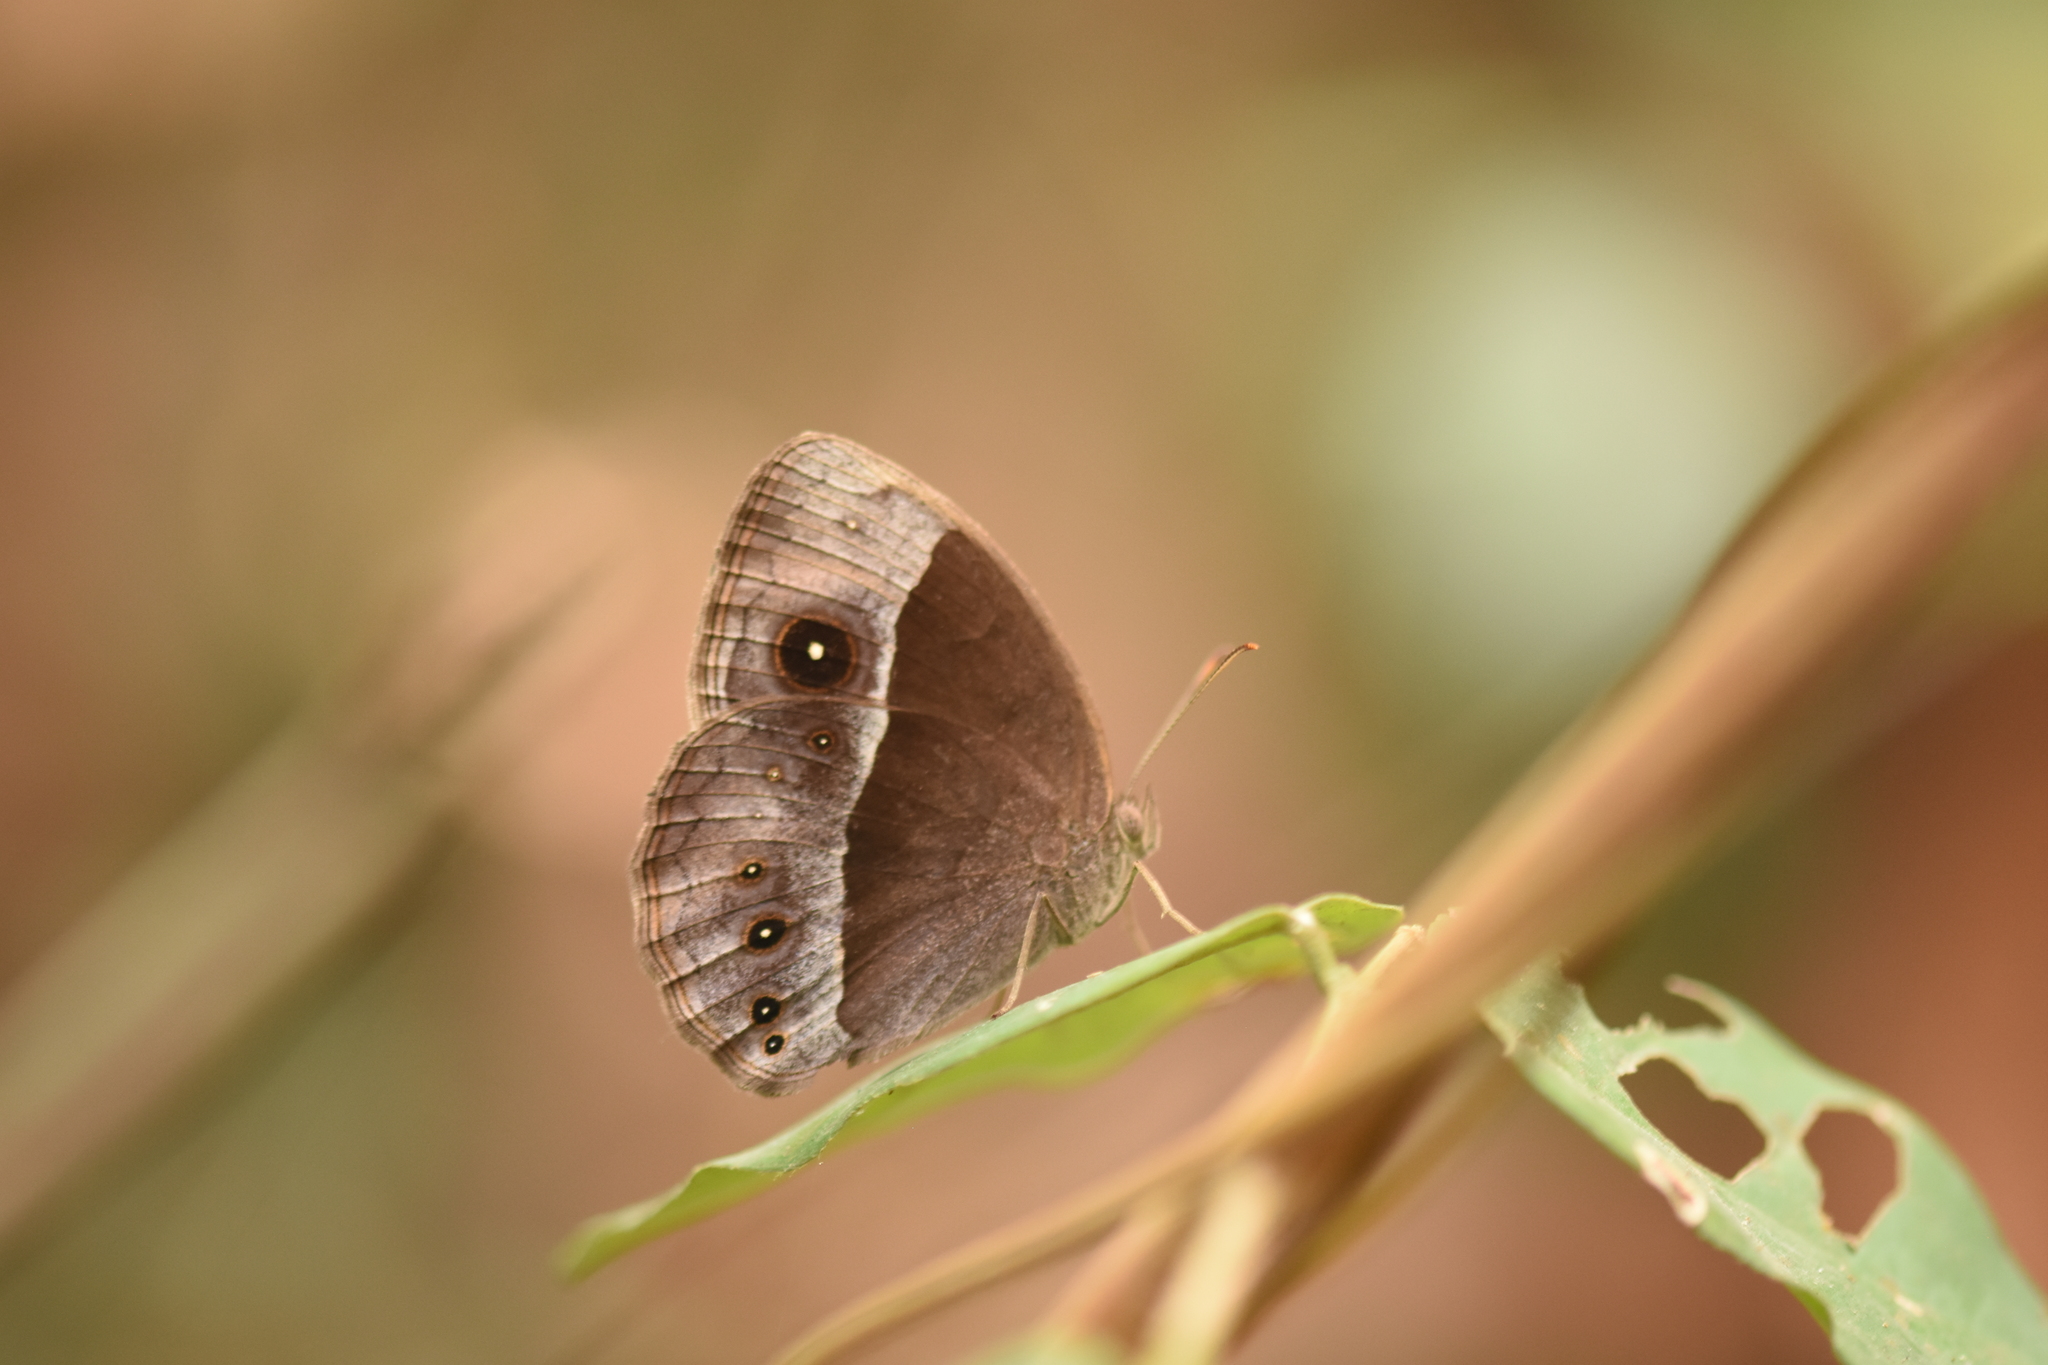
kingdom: Animalia
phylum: Arthropoda
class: Insecta
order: Lepidoptera
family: Nymphalidae
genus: Mycalesis
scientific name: Mycalesis rhacotis
